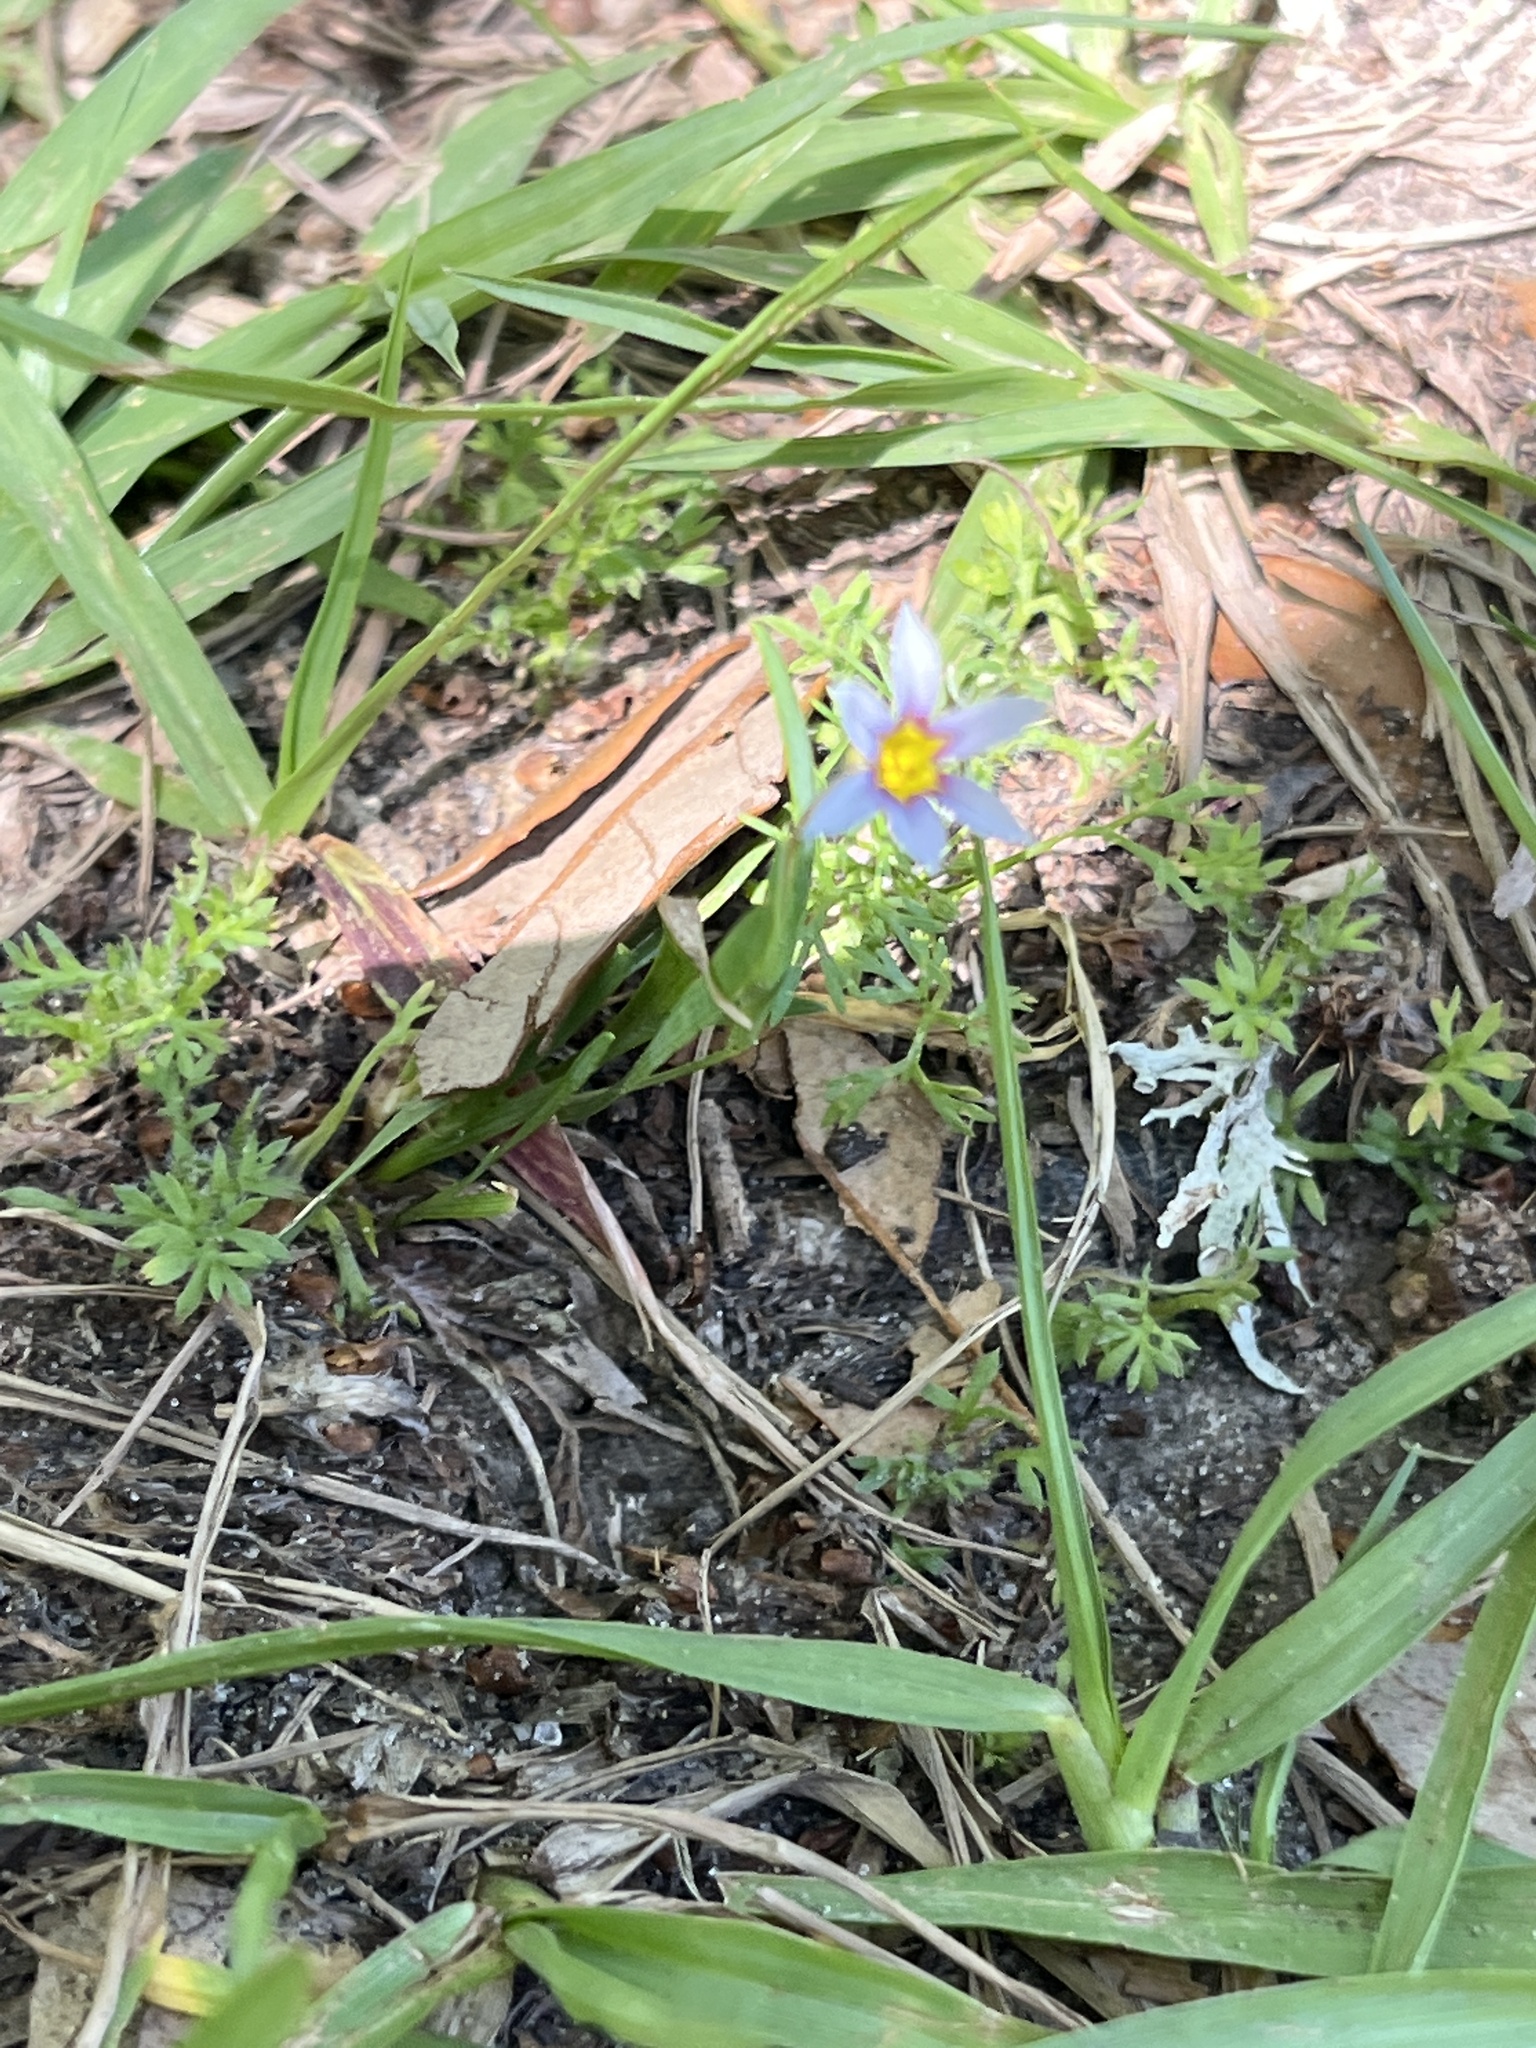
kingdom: Plantae
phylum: Tracheophyta
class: Liliopsida
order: Asparagales
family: Iridaceae
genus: Sisyrinchium
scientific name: Sisyrinchium micranthum
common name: Bermuda pigroot
